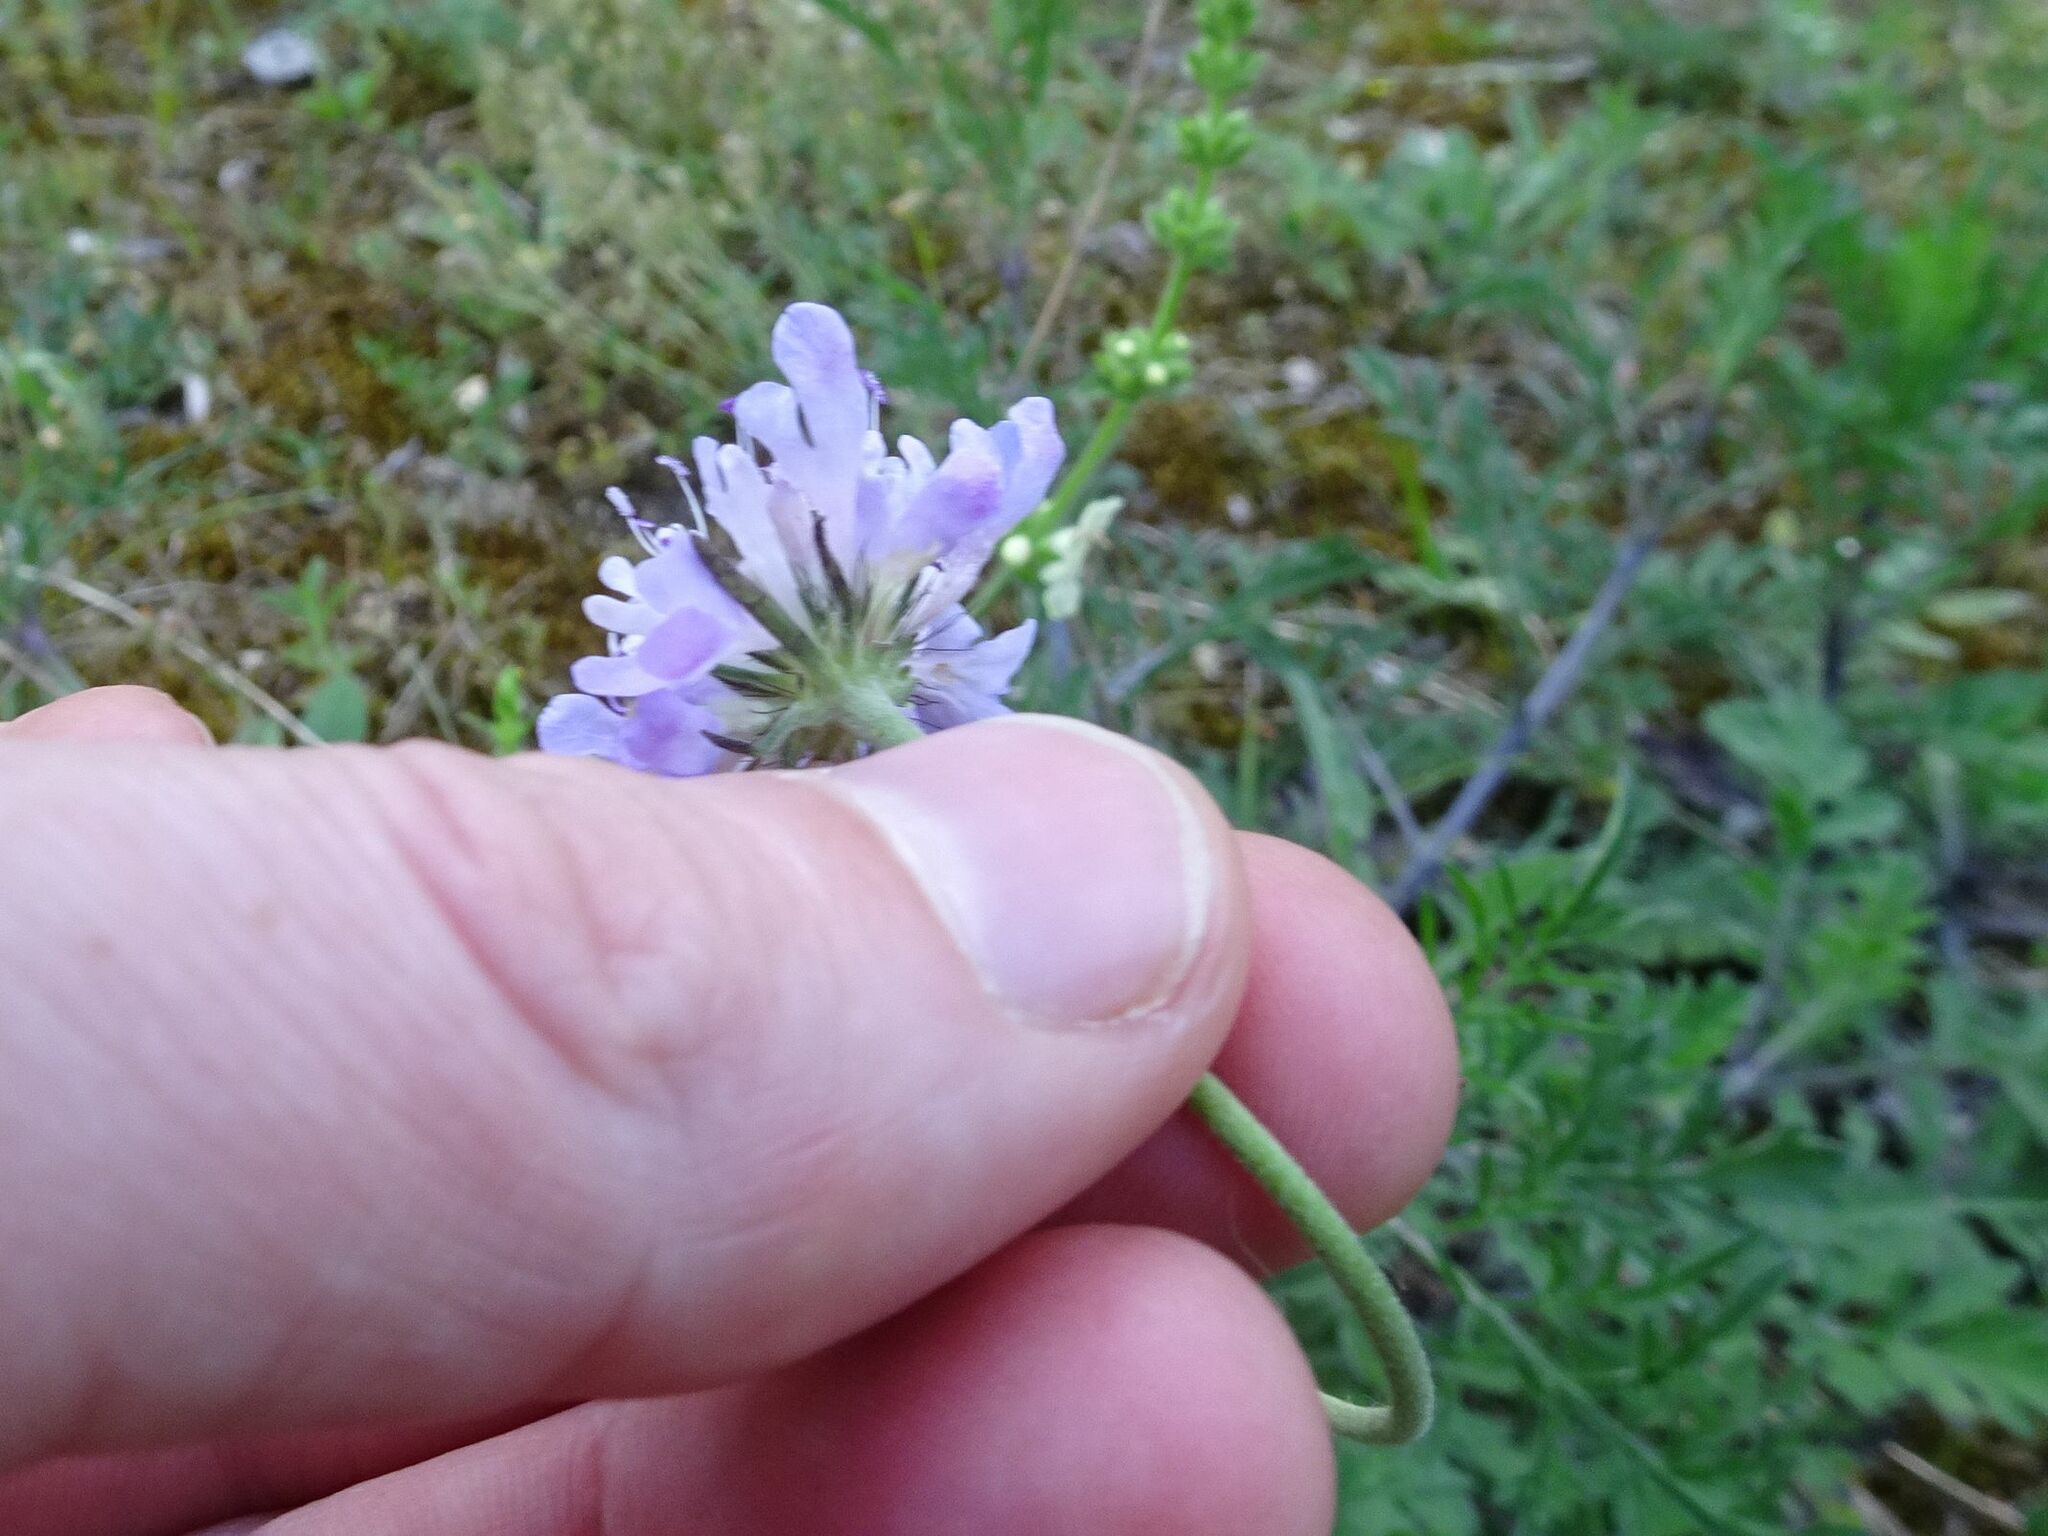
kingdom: Plantae
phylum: Tracheophyta
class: Magnoliopsida
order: Dipsacales
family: Caprifoliaceae
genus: Scabiosa
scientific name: Scabiosa columbaria
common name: Small scabious
